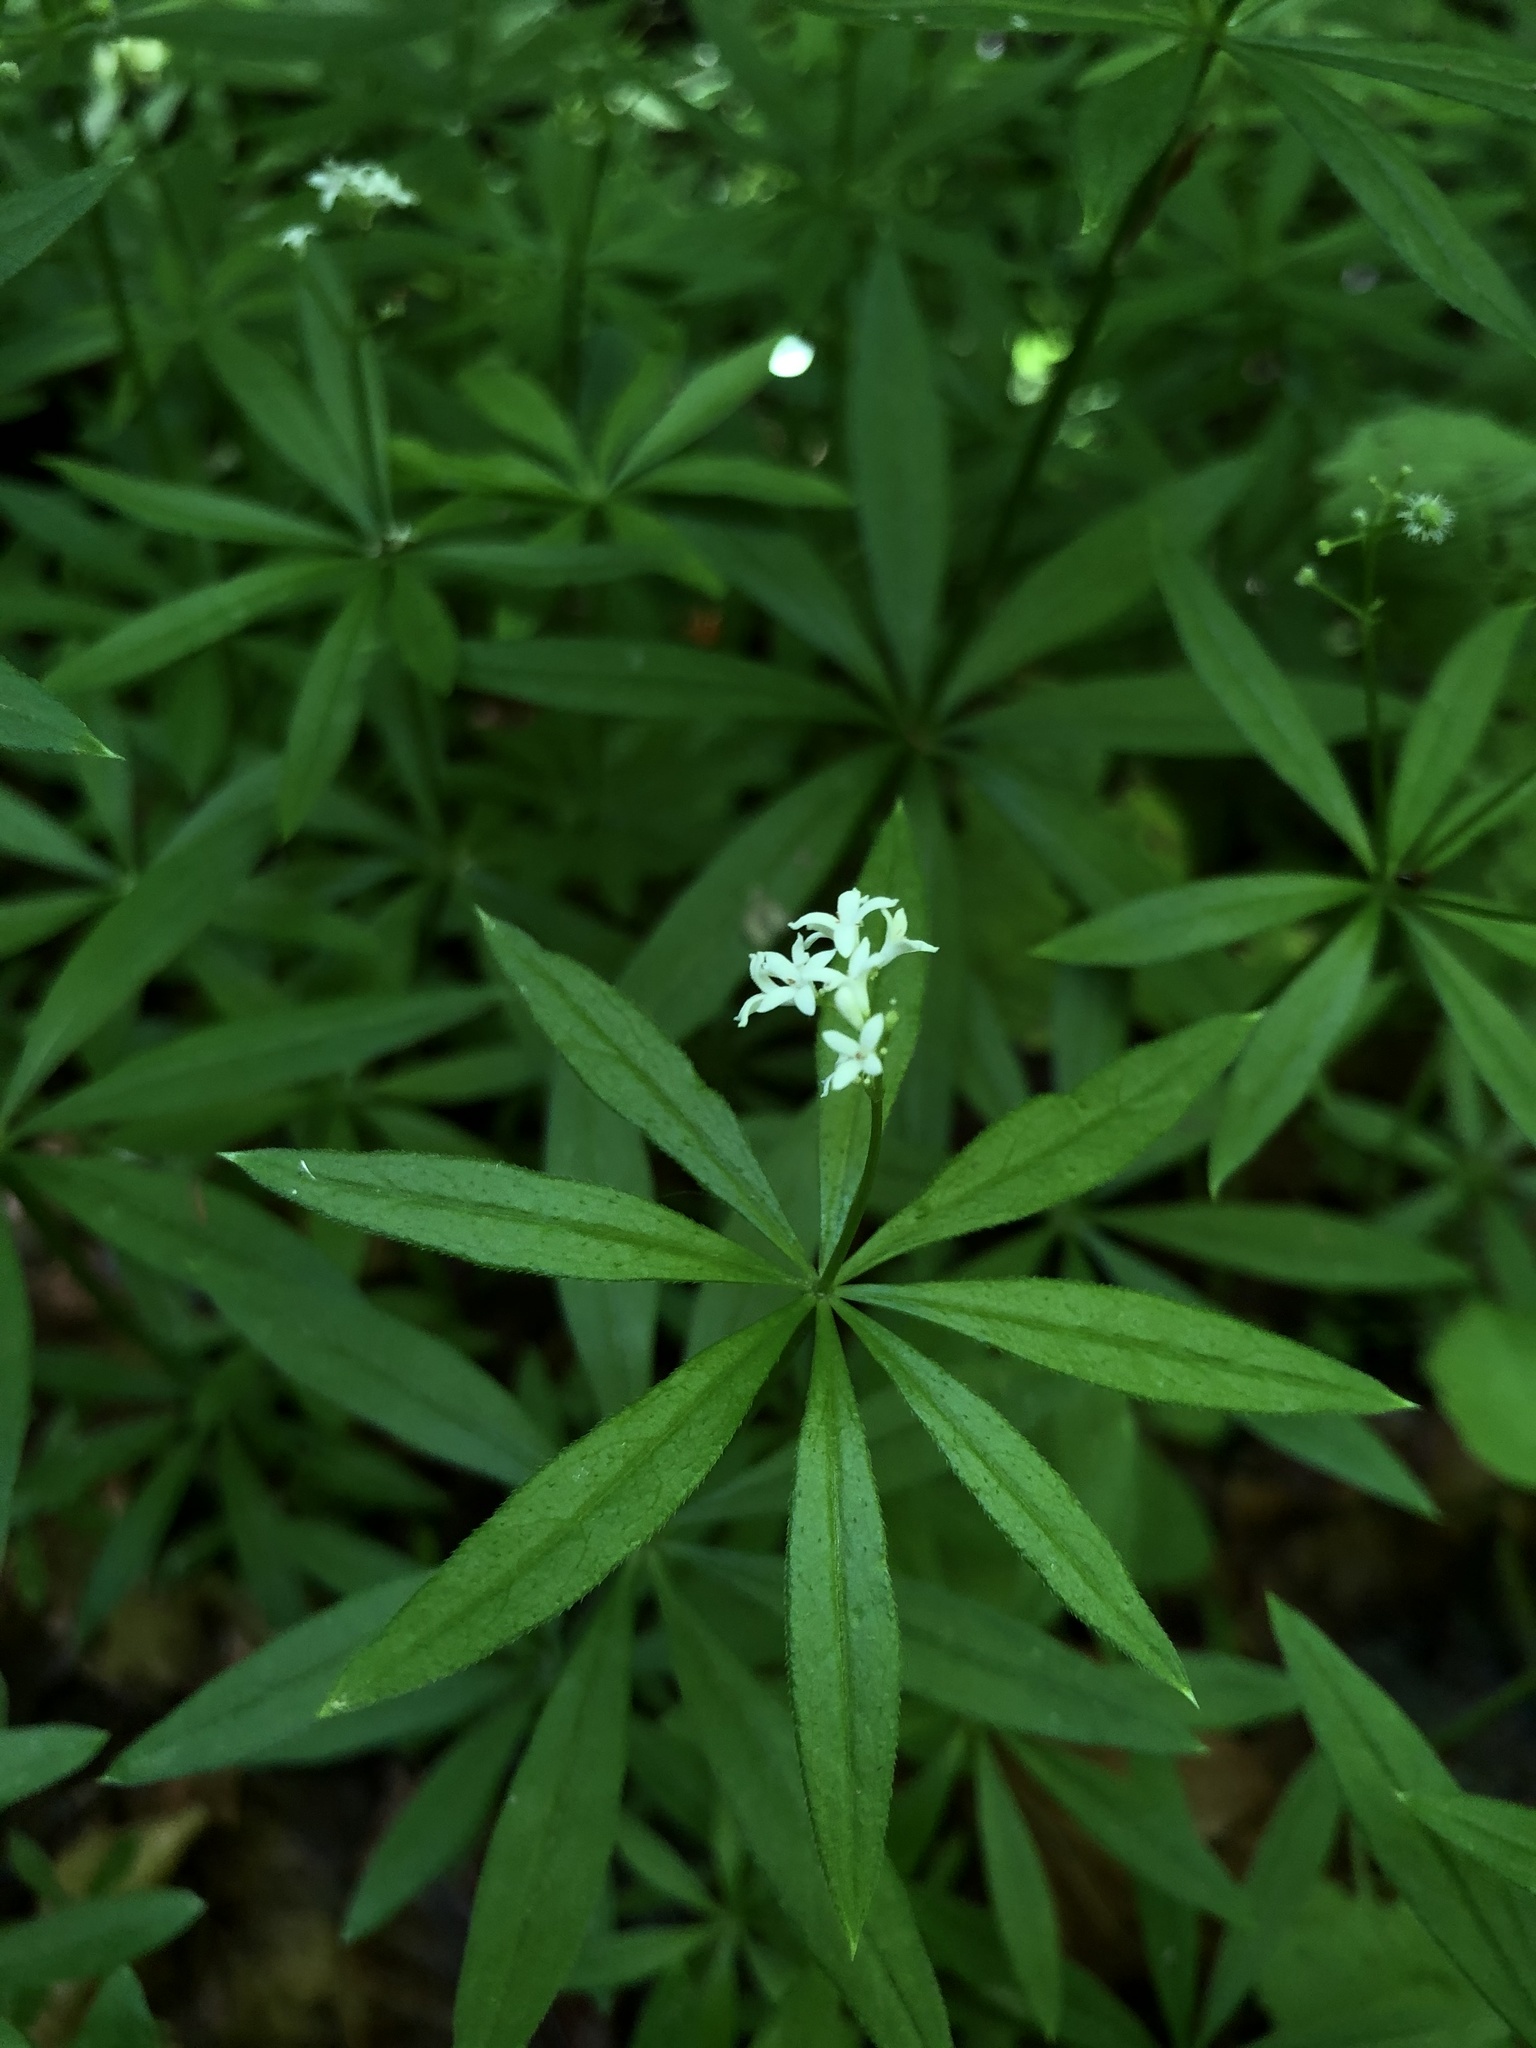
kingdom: Plantae
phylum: Tracheophyta
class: Magnoliopsida
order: Gentianales
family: Rubiaceae
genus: Galium
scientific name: Galium odoratum
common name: Sweet woodruff
